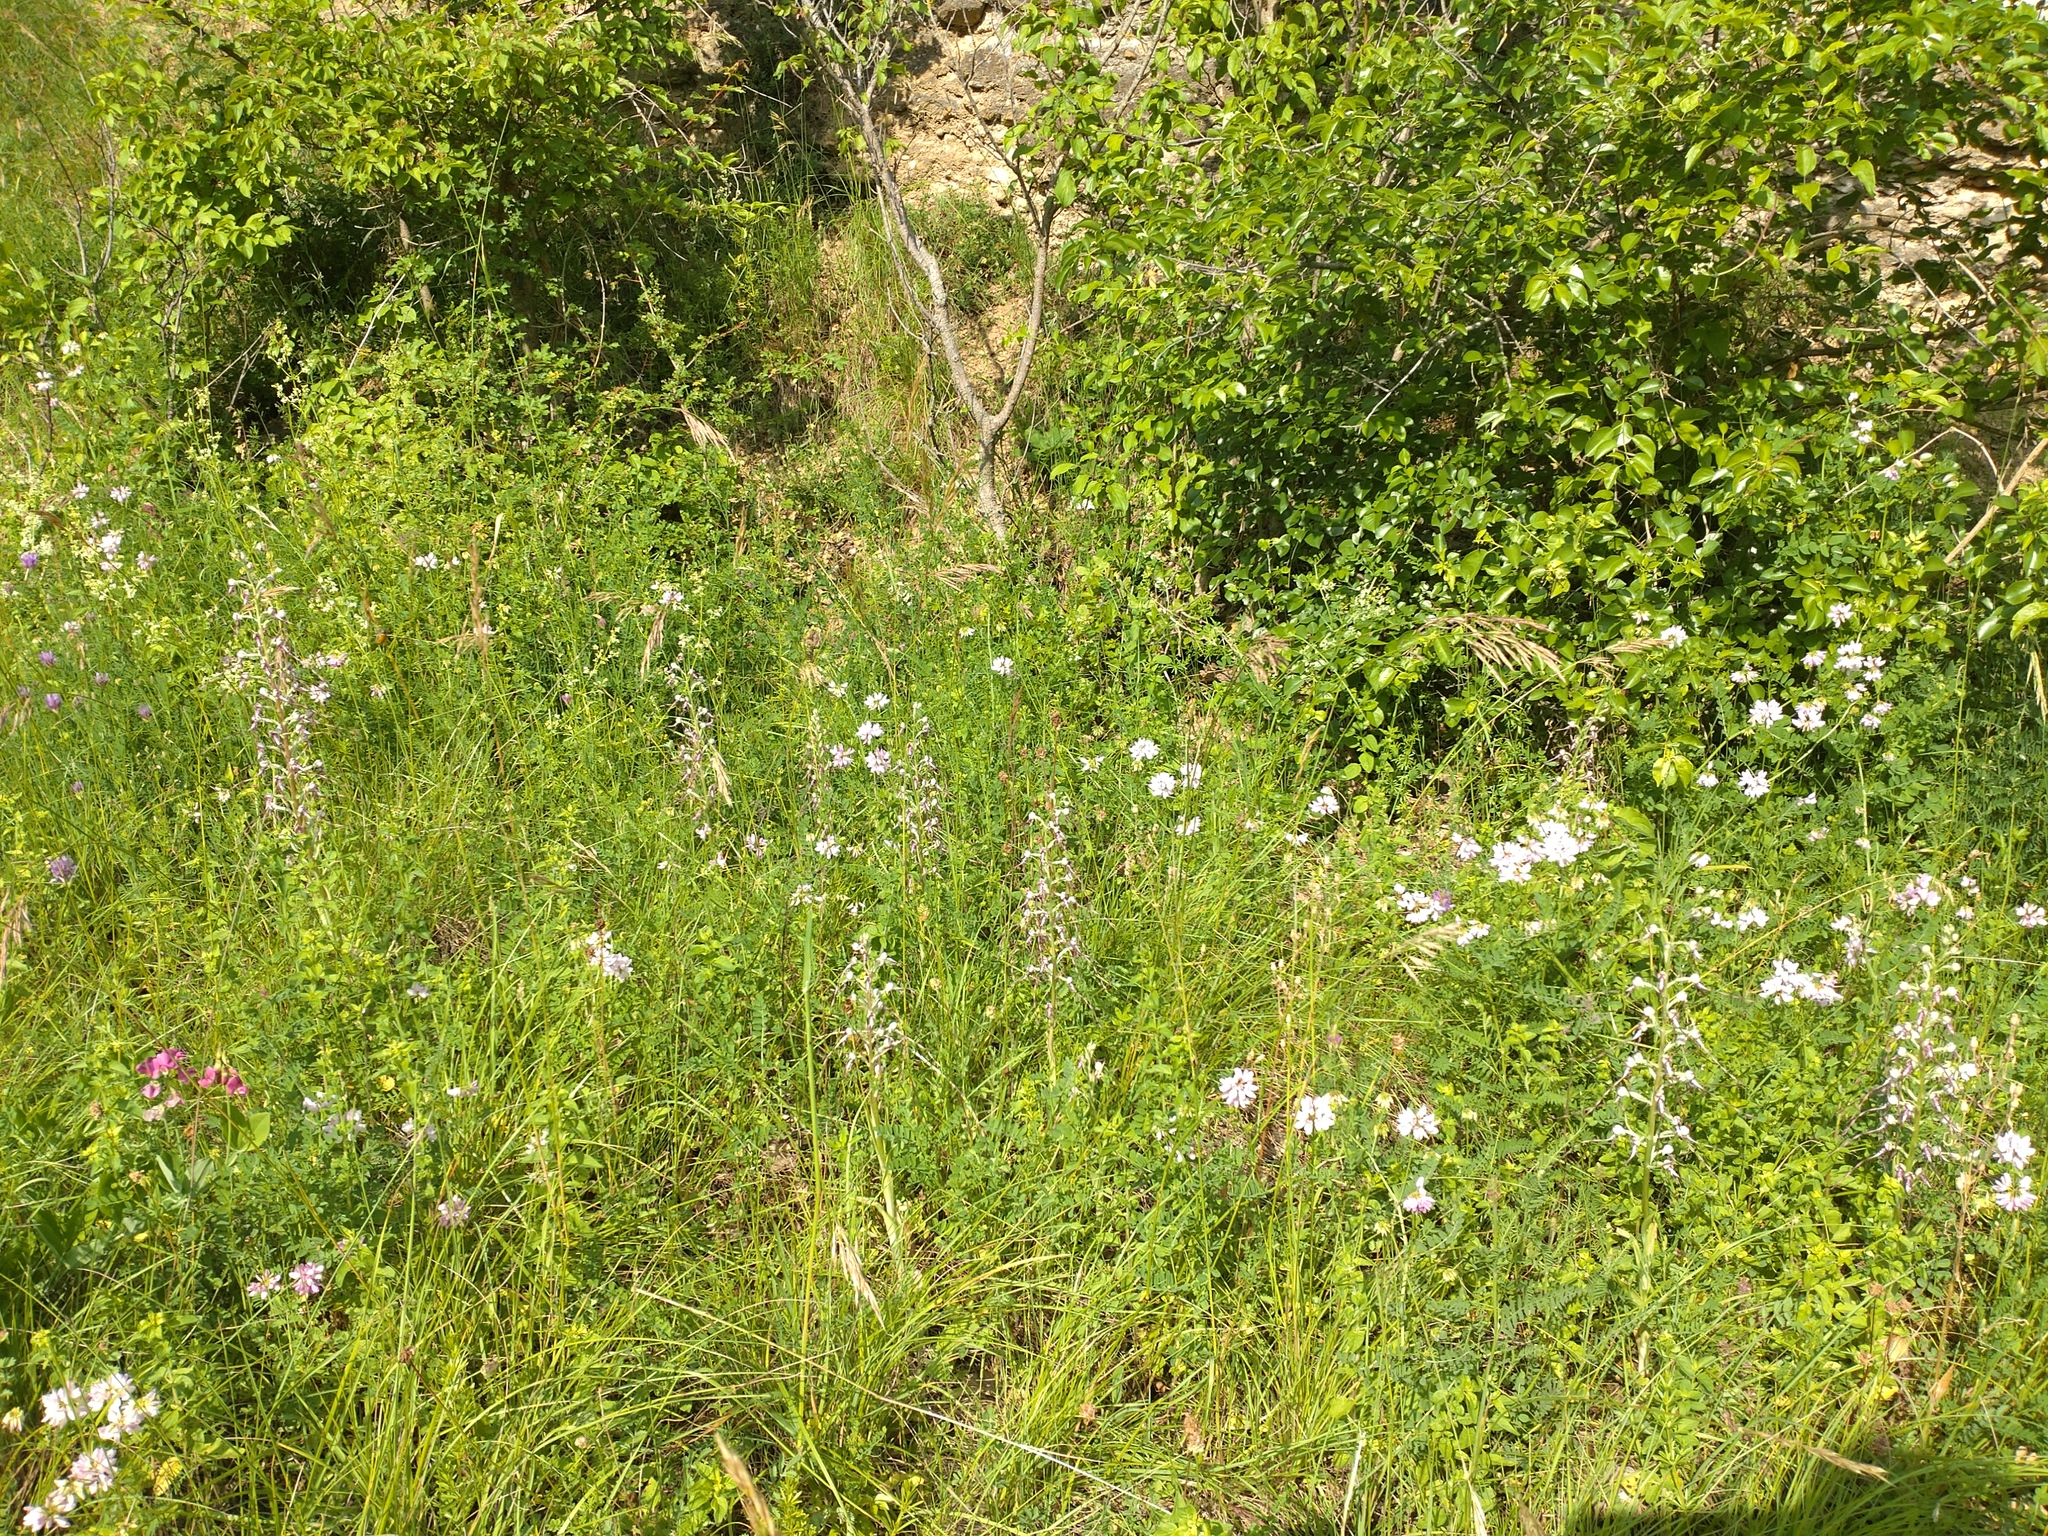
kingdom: Plantae
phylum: Tracheophyta
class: Liliopsida
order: Asparagales
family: Orchidaceae
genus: Himantoglossum
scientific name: Himantoglossum adriaticum
